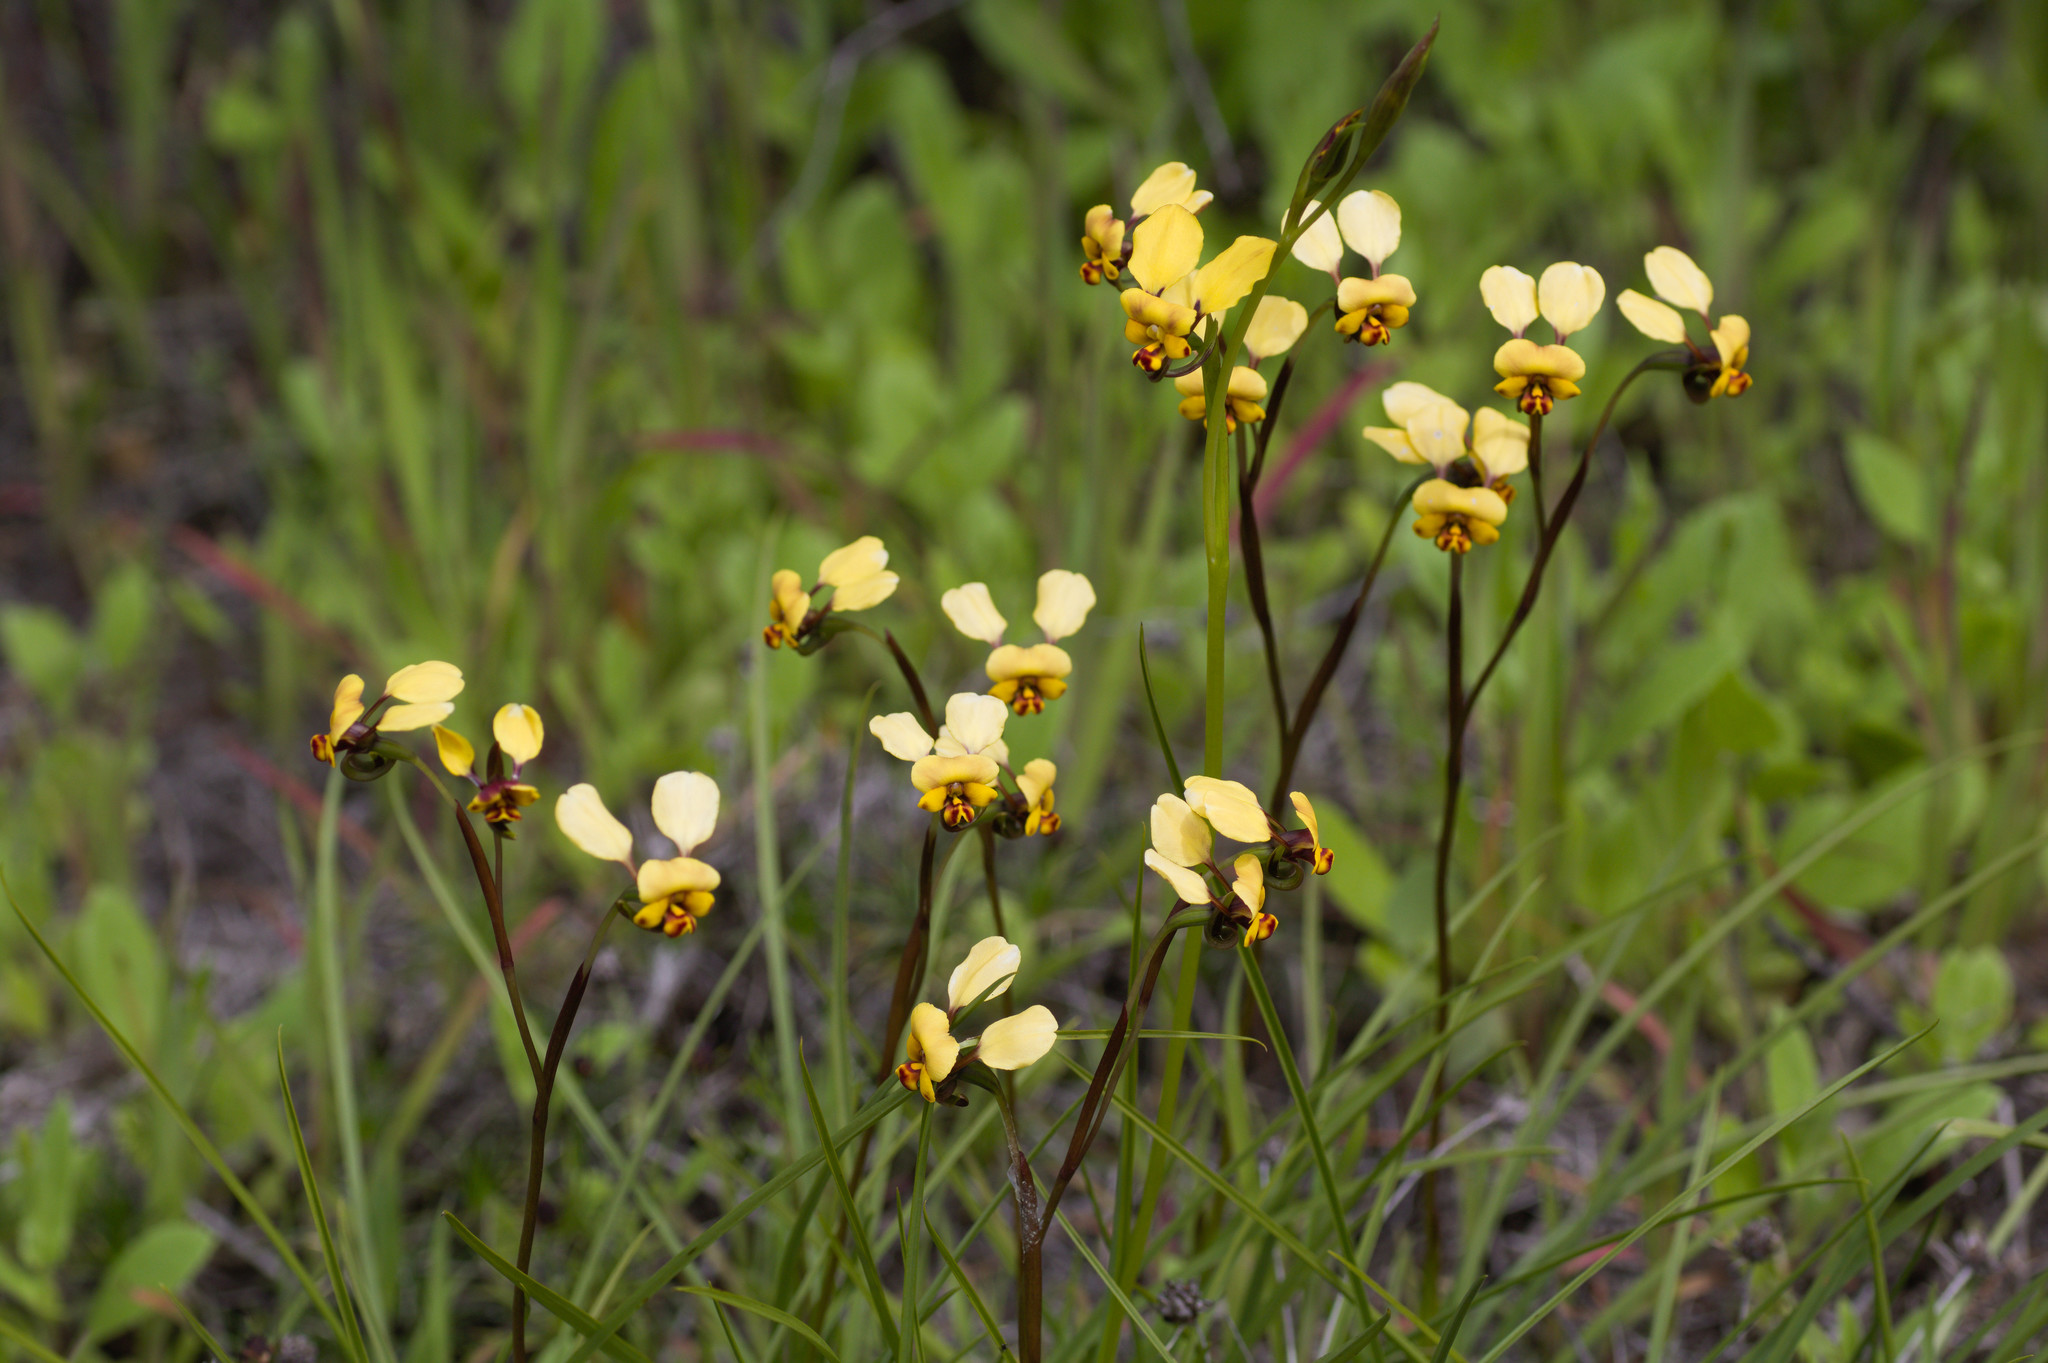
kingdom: Plantae
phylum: Tracheophyta
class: Liliopsida
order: Asparagales
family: Orchidaceae
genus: Diuris
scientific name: Diuris pallescens
